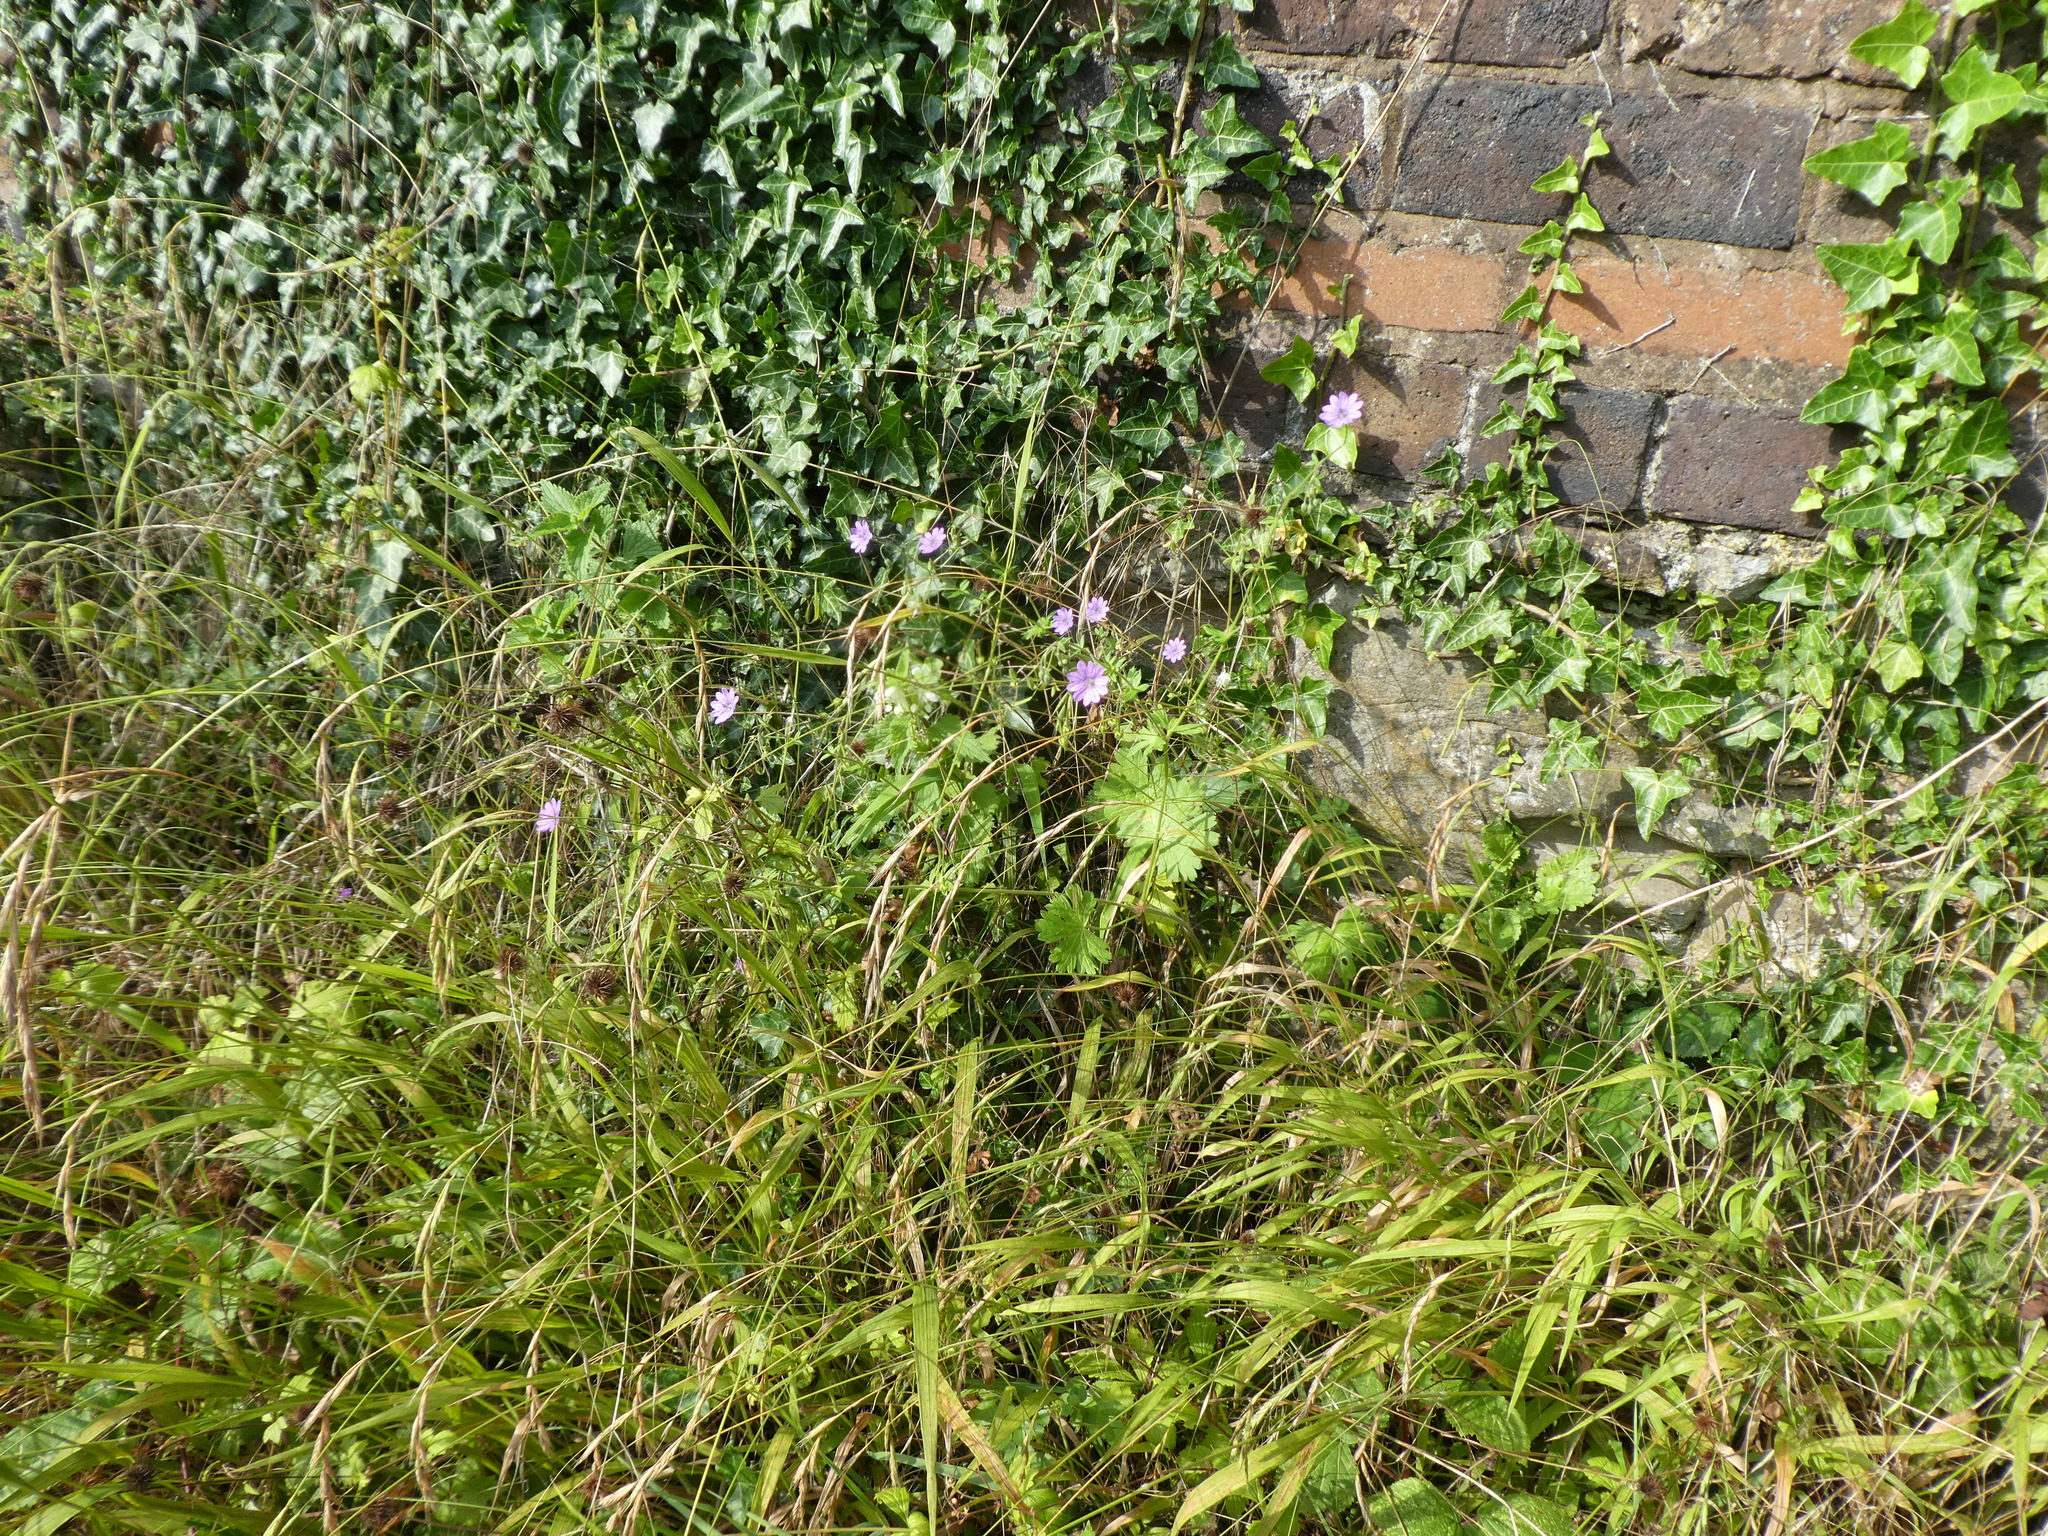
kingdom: Plantae
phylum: Tracheophyta
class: Magnoliopsida
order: Geraniales
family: Geraniaceae
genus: Geranium
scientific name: Geranium pyrenaicum
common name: Hedgerow crane's-bill
